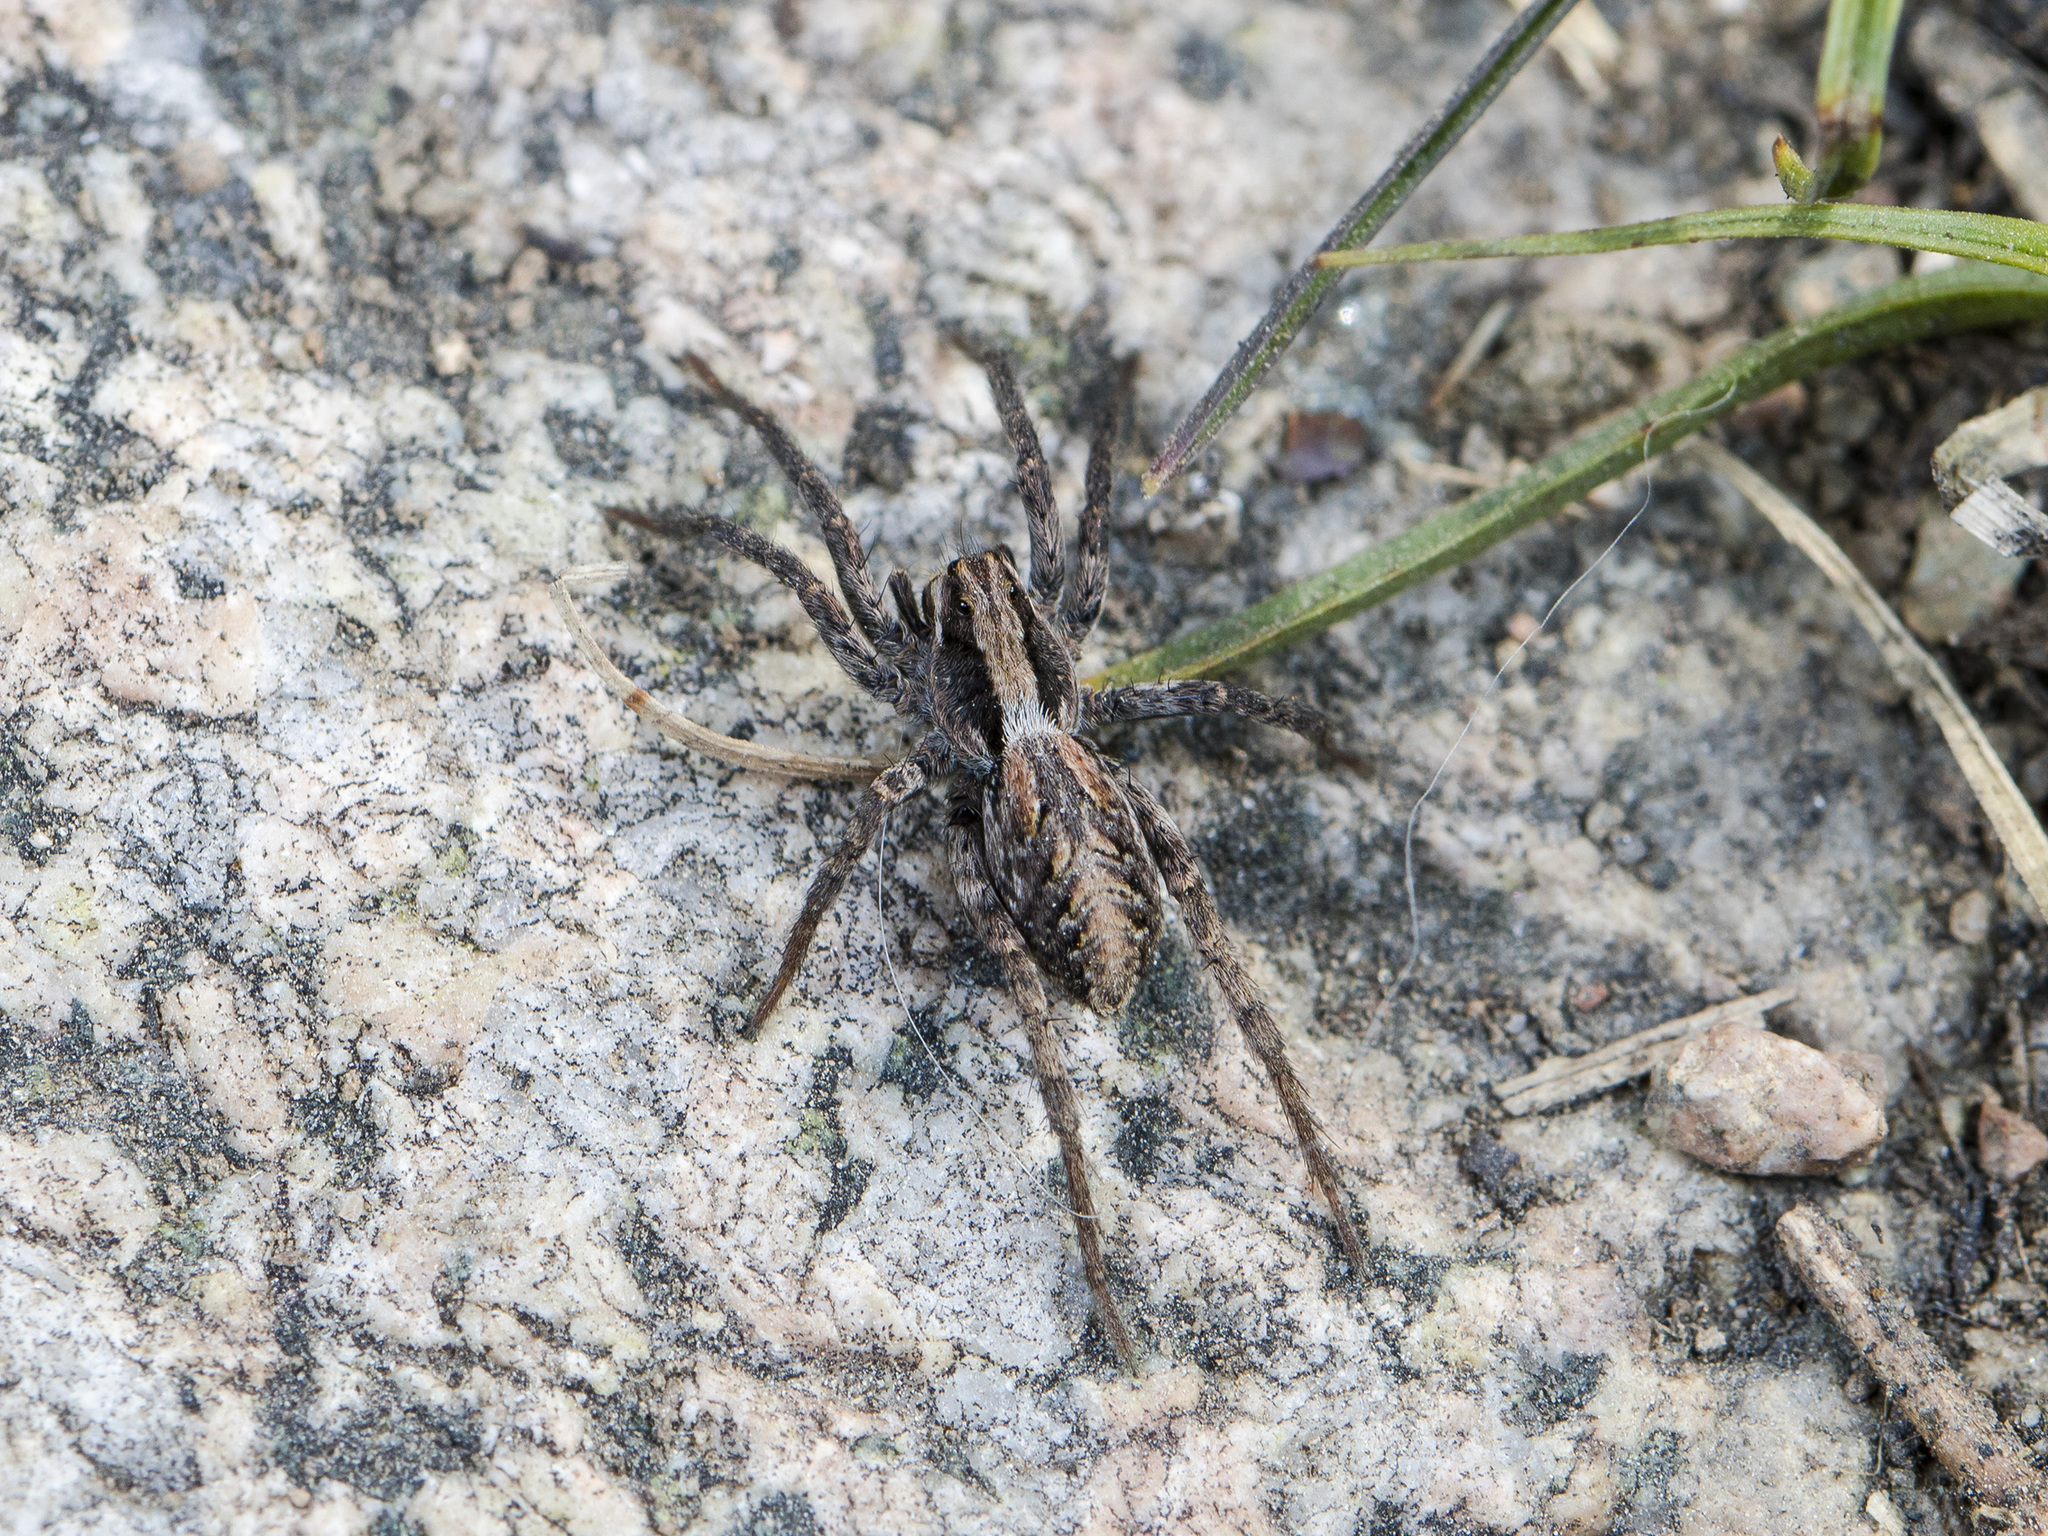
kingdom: Animalia
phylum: Arthropoda
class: Arachnida
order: Araneae
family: Lycosidae
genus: Alopecosa
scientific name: Alopecosa cursor
